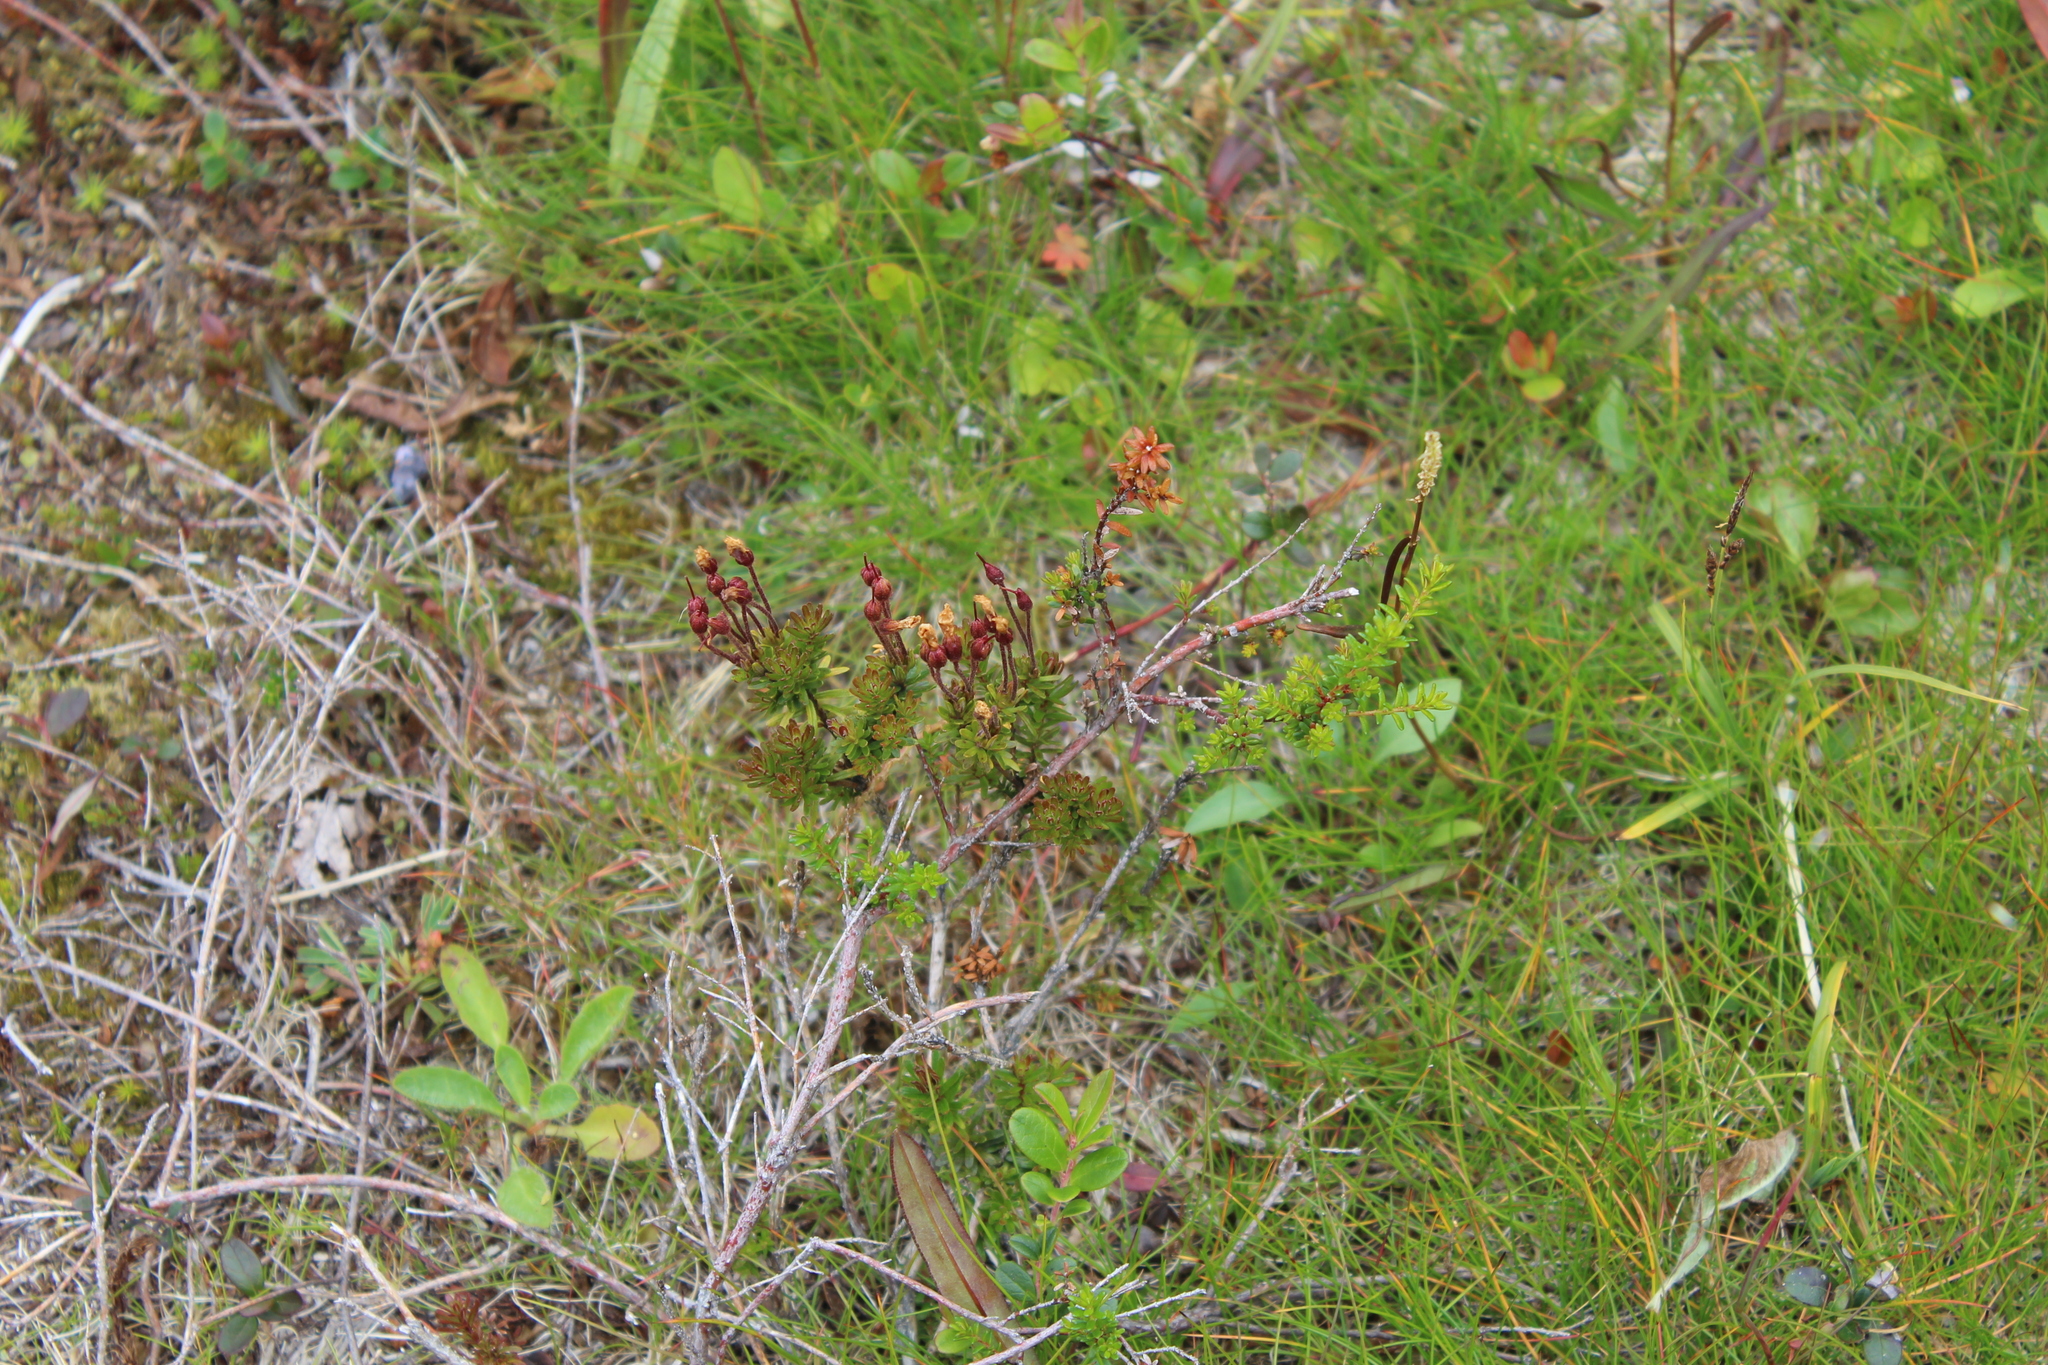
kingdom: Plantae
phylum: Tracheophyta
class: Magnoliopsida
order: Ericales
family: Ericaceae
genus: Phyllodoce
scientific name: Phyllodoce caerulea
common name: Blue heath
